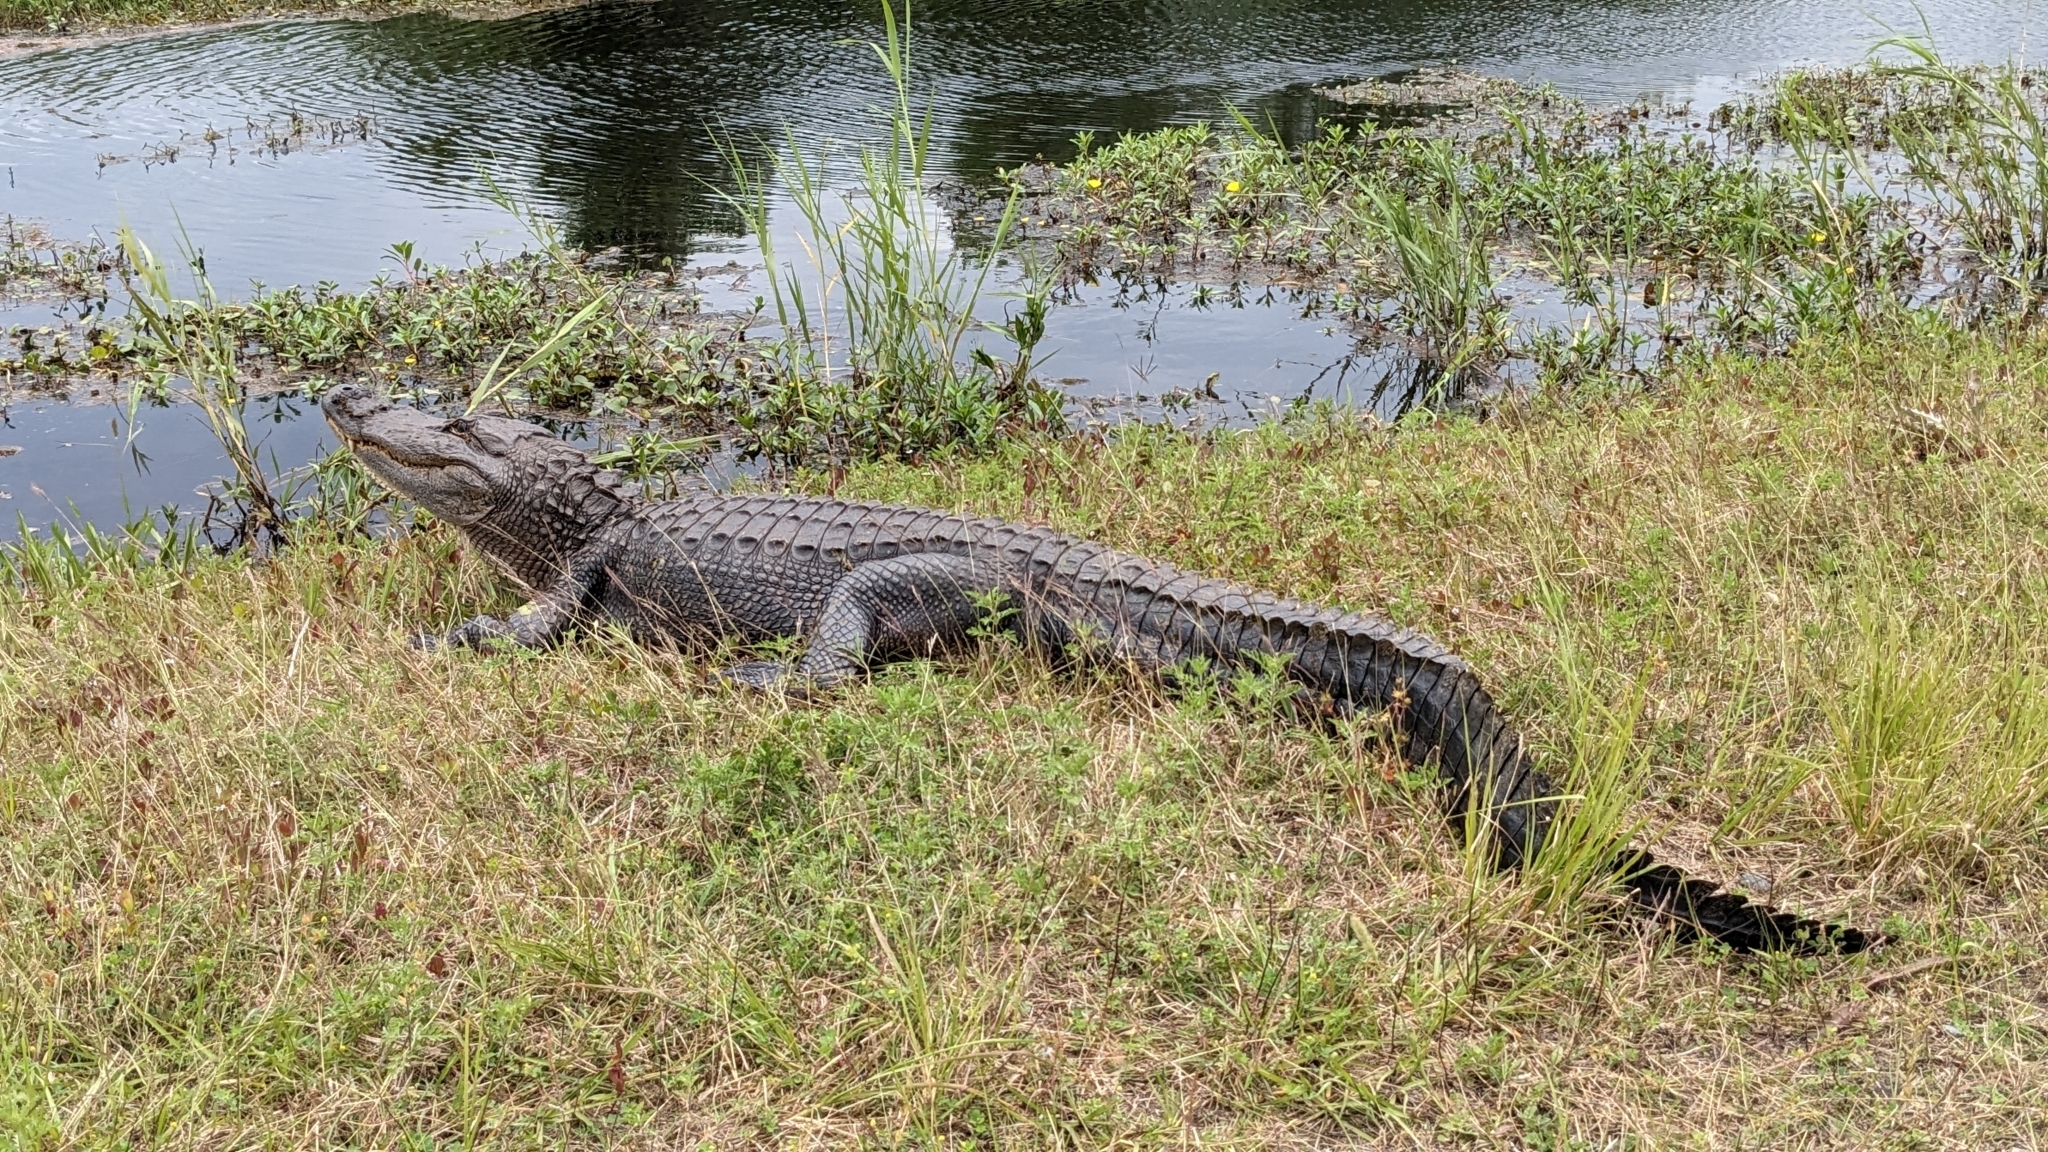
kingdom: Animalia
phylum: Chordata
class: Crocodylia
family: Alligatoridae
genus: Alligator
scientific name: Alligator mississippiensis
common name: American alligator
